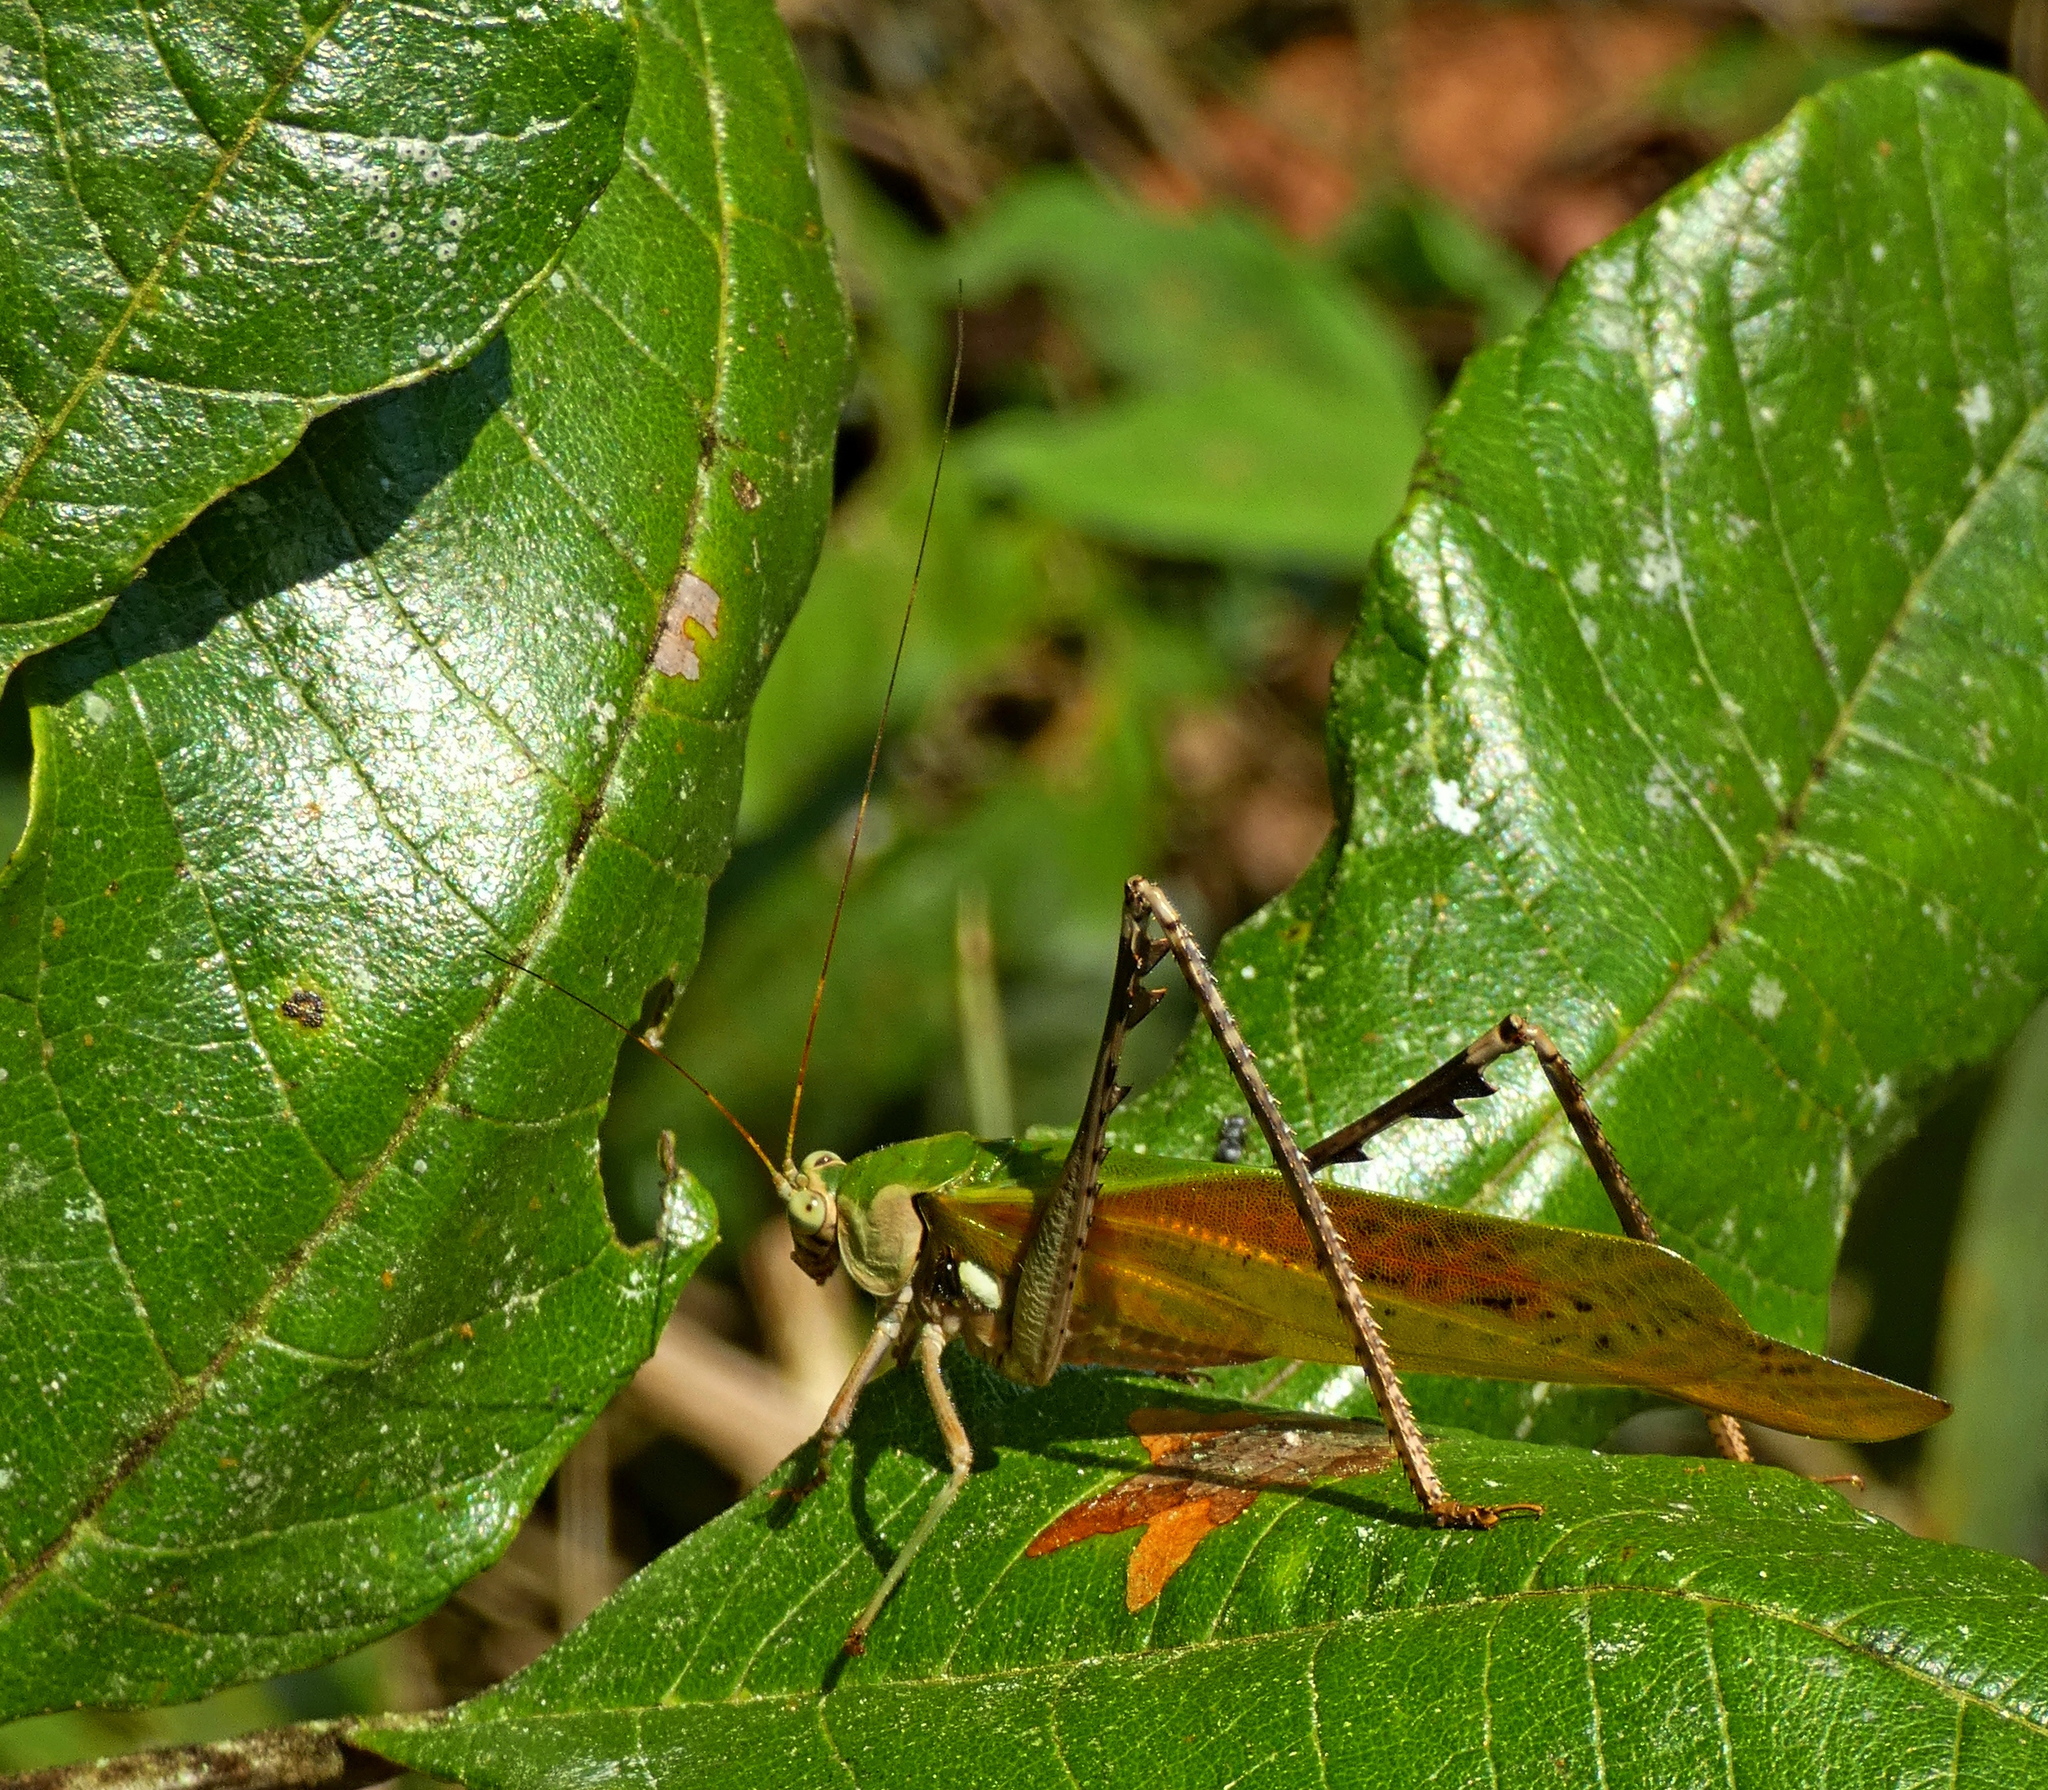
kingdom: Animalia
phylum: Arthropoda
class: Insecta
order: Orthoptera
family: Tettigoniidae
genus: Vellea
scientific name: Vellea cruenta
